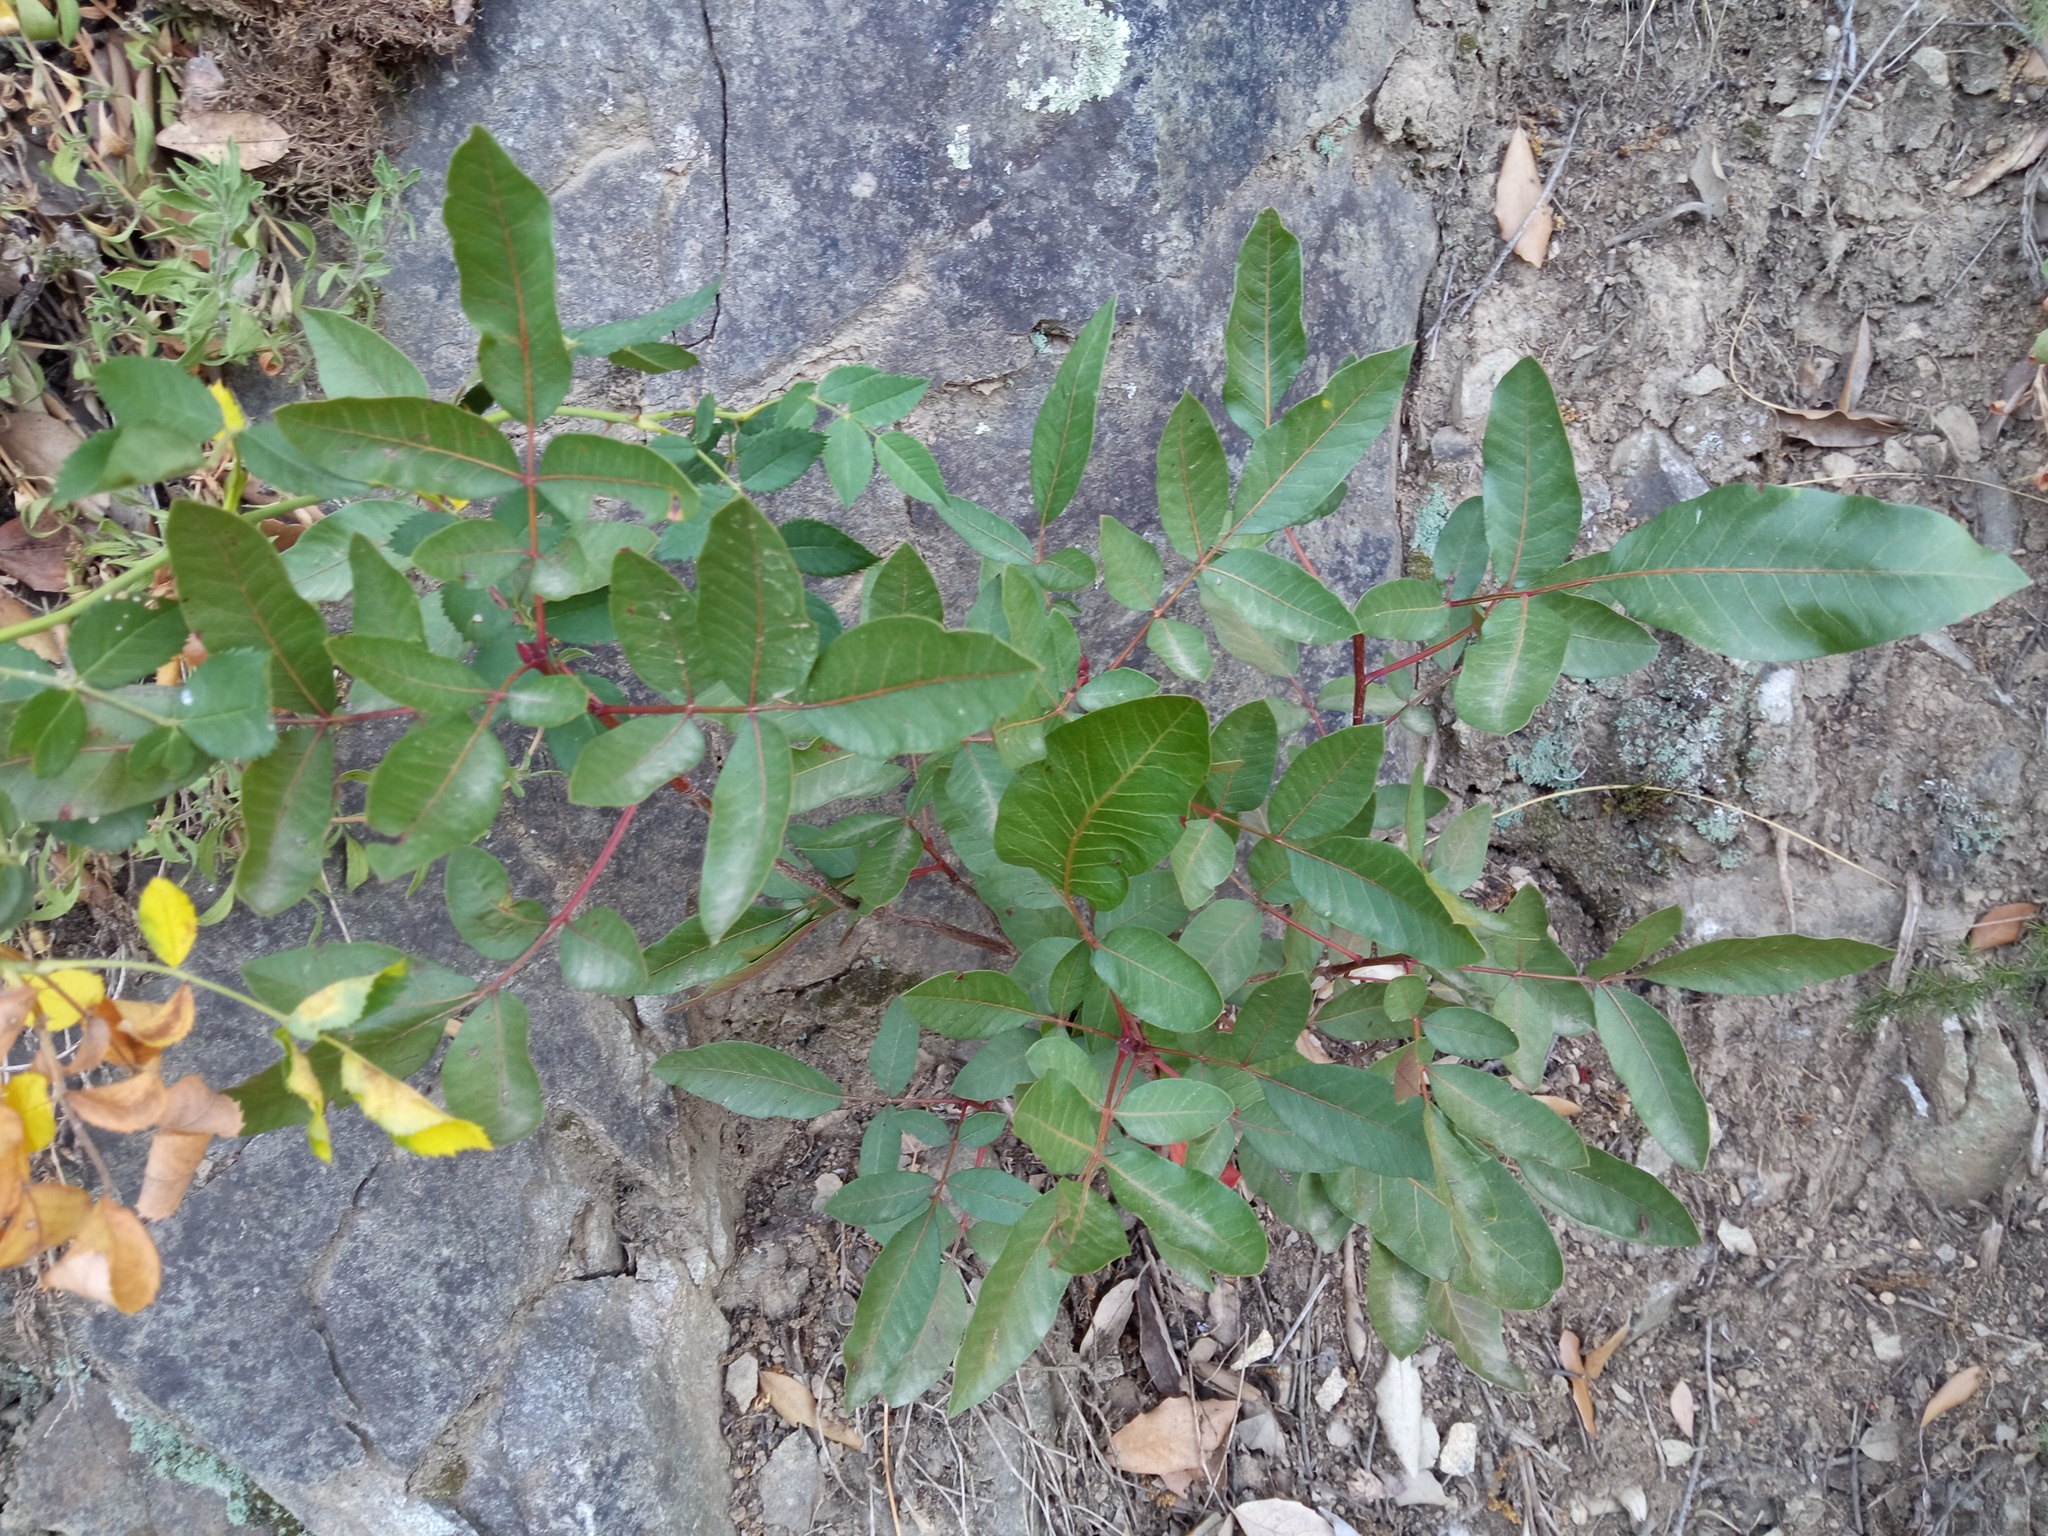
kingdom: Plantae
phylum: Tracheophyta
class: Magnoliopsida
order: Sapindales
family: Anacardiaceae
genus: Pistacia
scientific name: Pistacia terebinthus
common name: Terebinth
